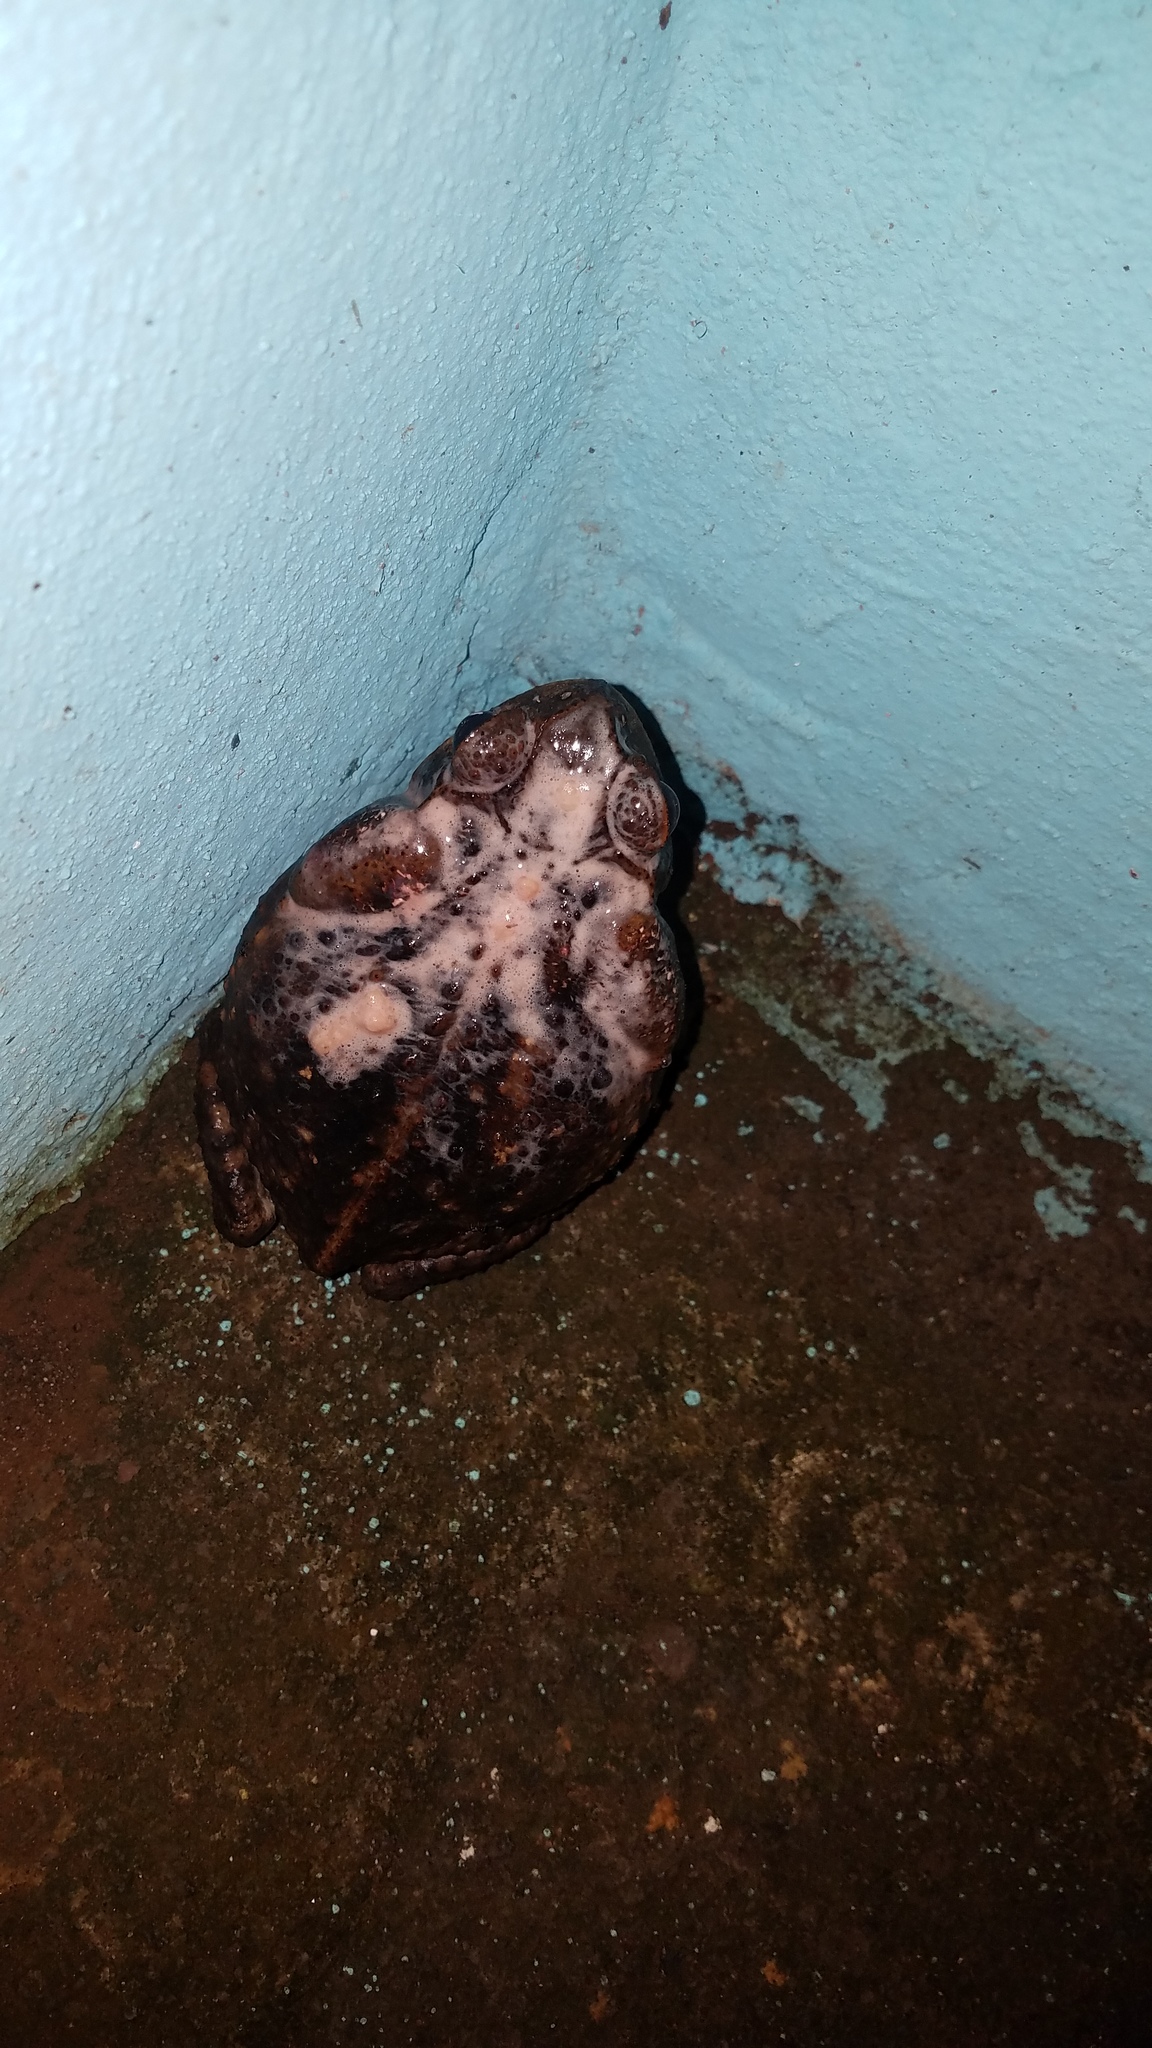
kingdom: Animalia
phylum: Chordata
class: Amphibia
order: Anura
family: Bufonidae
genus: Rhinella
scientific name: Rhinella horribilis
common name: Mesoamerican cane toad
